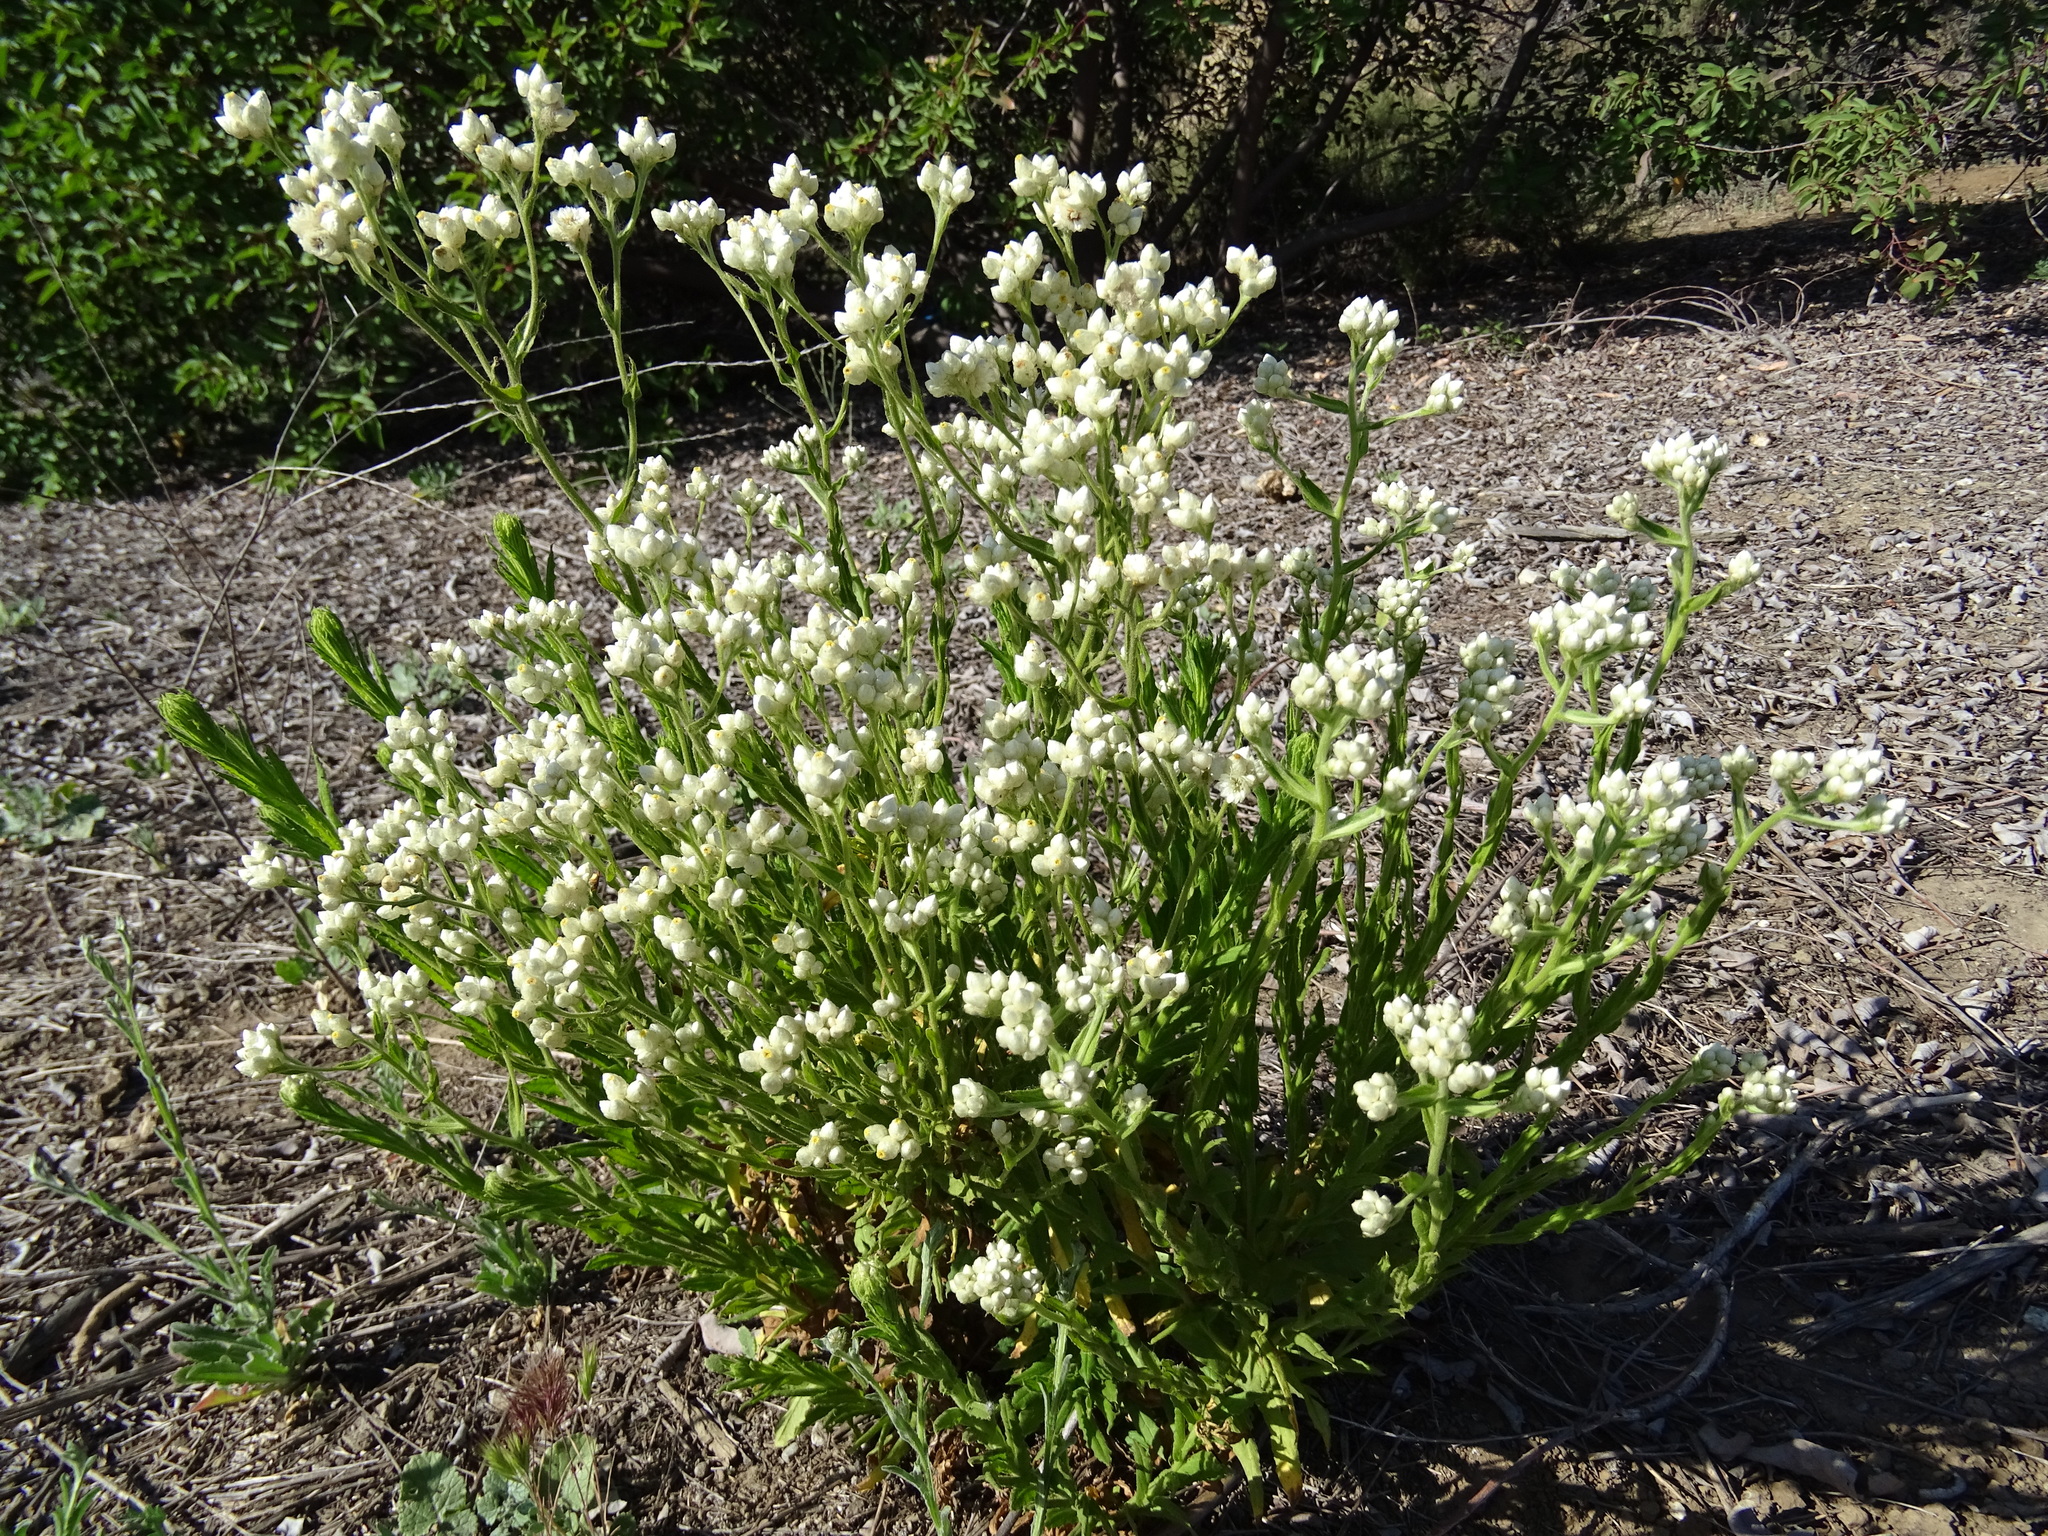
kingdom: Plantae
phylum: Tracheophyta
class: Magnoliopsida
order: Asterales
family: Asteraceae
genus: Pseudognaphalium
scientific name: Pseudognaphalium californicum
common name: California rabbit-tobacco
